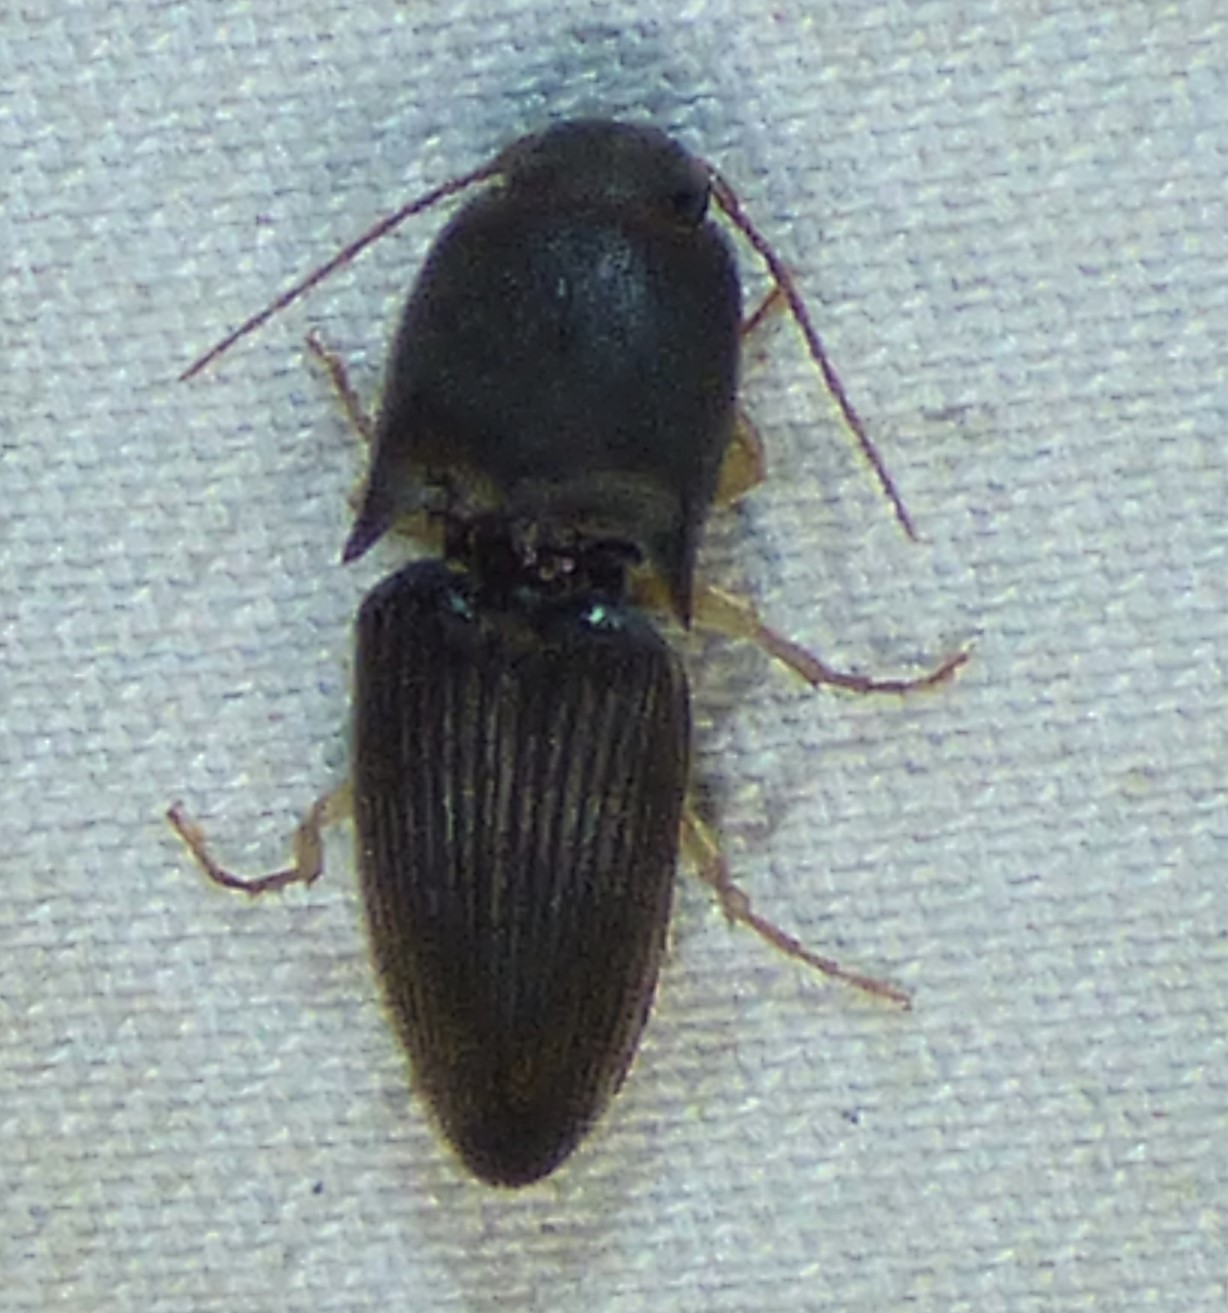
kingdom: Animalia
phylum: Arthropoda
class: Insecta
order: Coleoptera
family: Elateridae
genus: Heteroderes
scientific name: Heteroderes amplicollis
